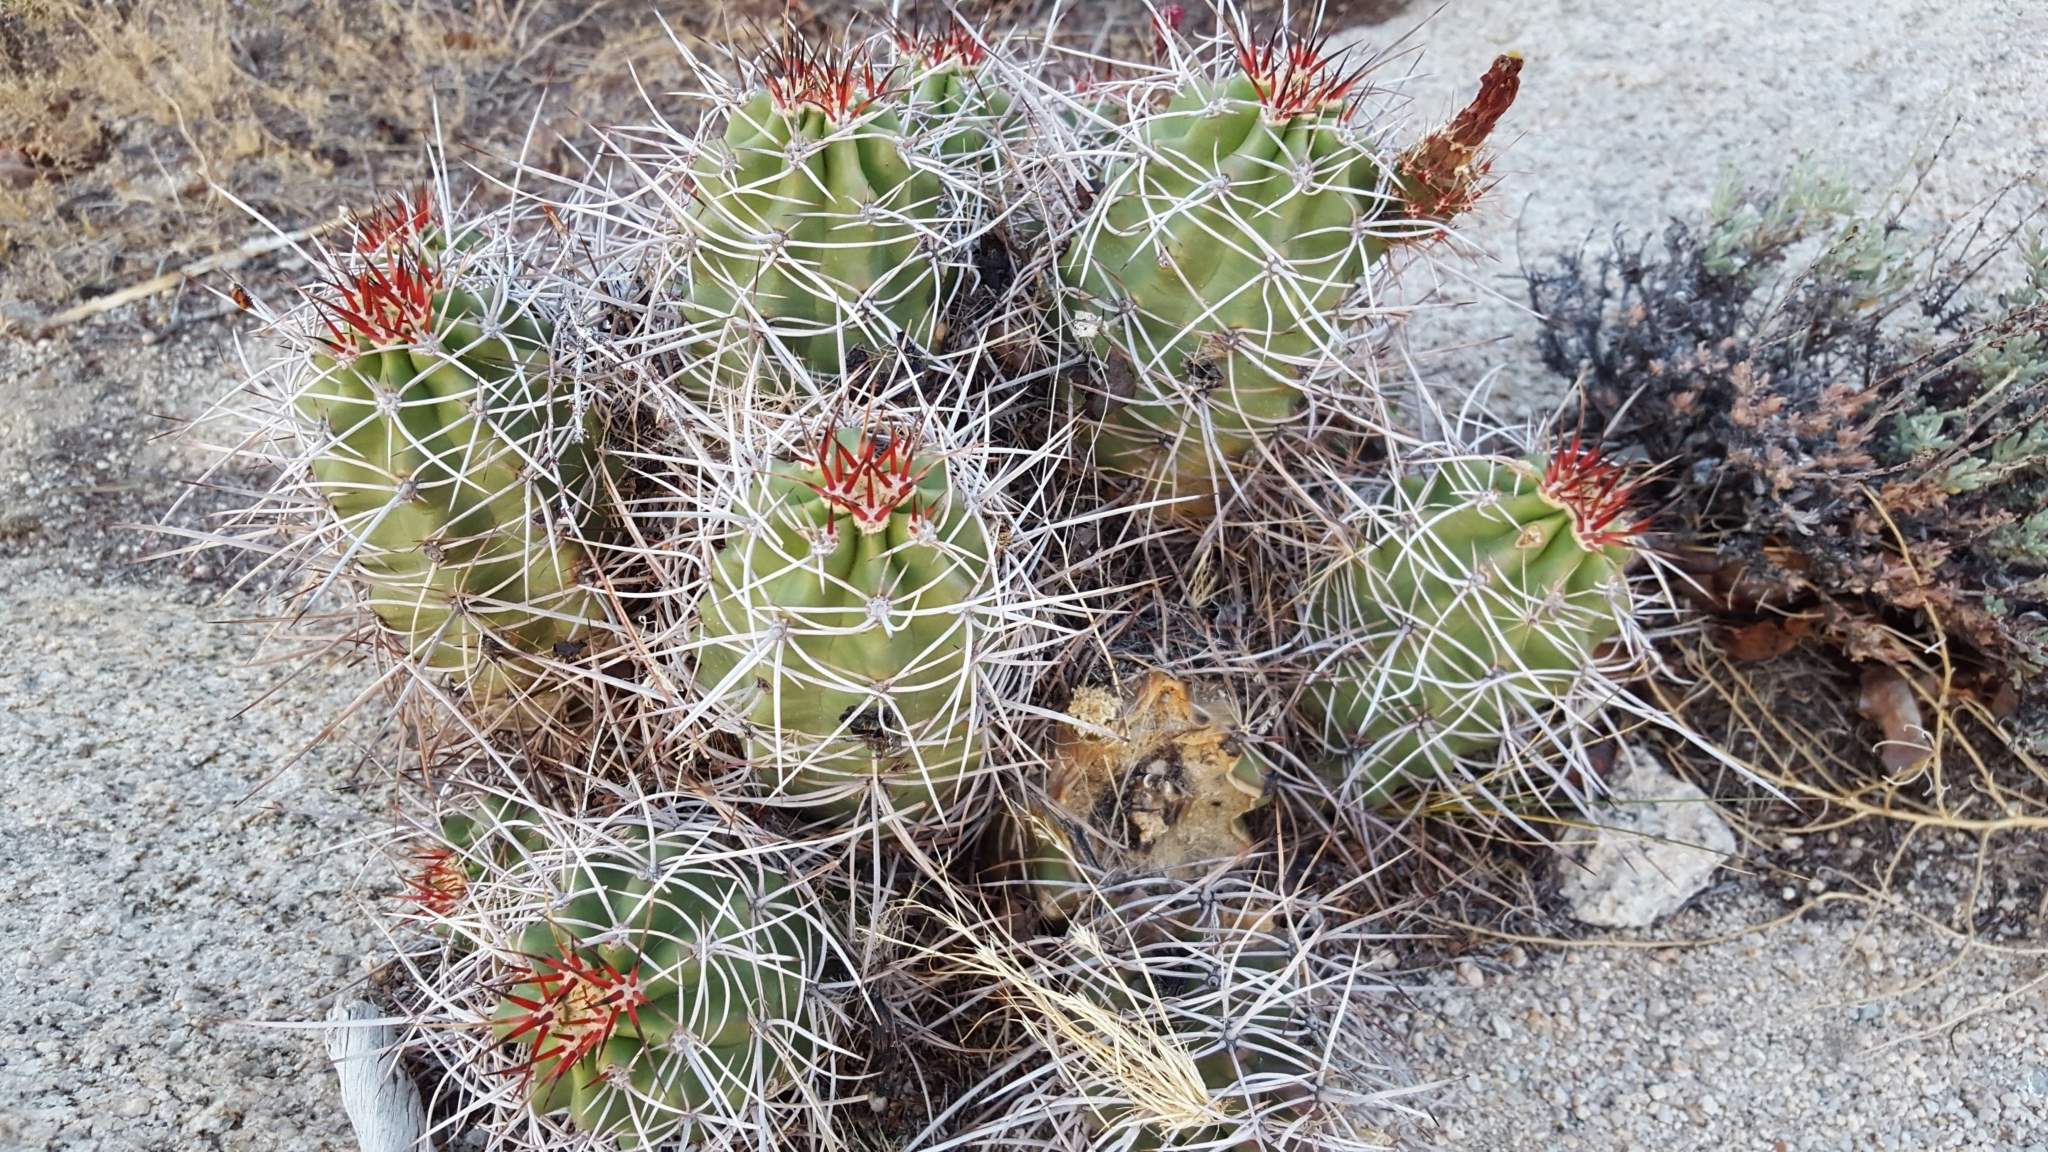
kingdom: Plantae
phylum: Tracheophyta
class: Magnoliopsida
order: Caryophyllales
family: Cactaceae
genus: Echinocereus
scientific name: Echinocereus triglochidiatus
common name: Claretcup hedgehog
